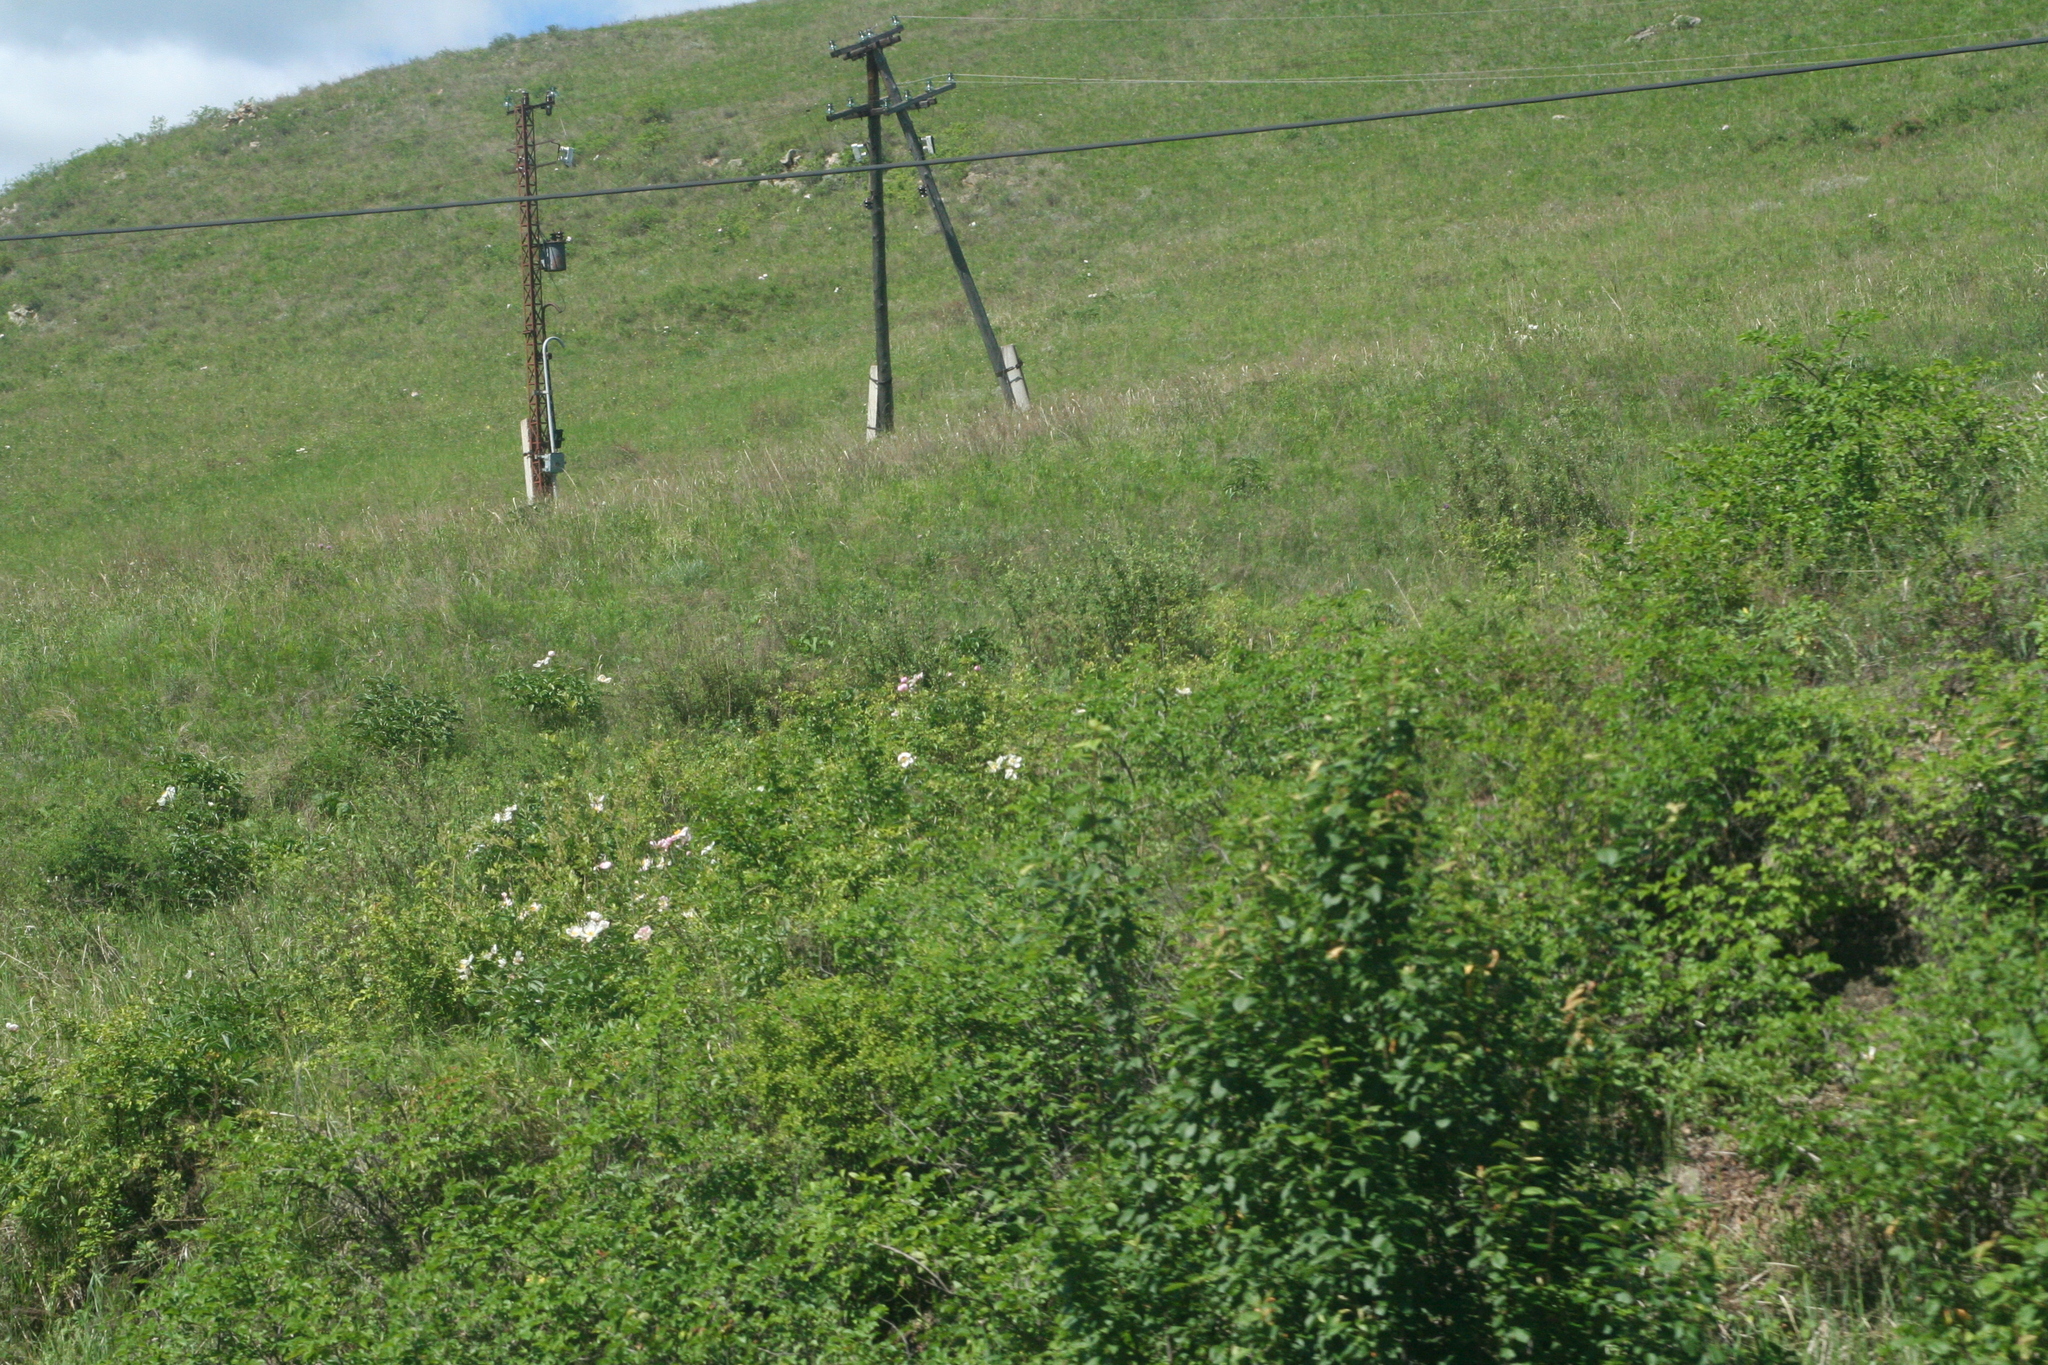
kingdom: Plantae
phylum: Tracheophyta
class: Magnoliopsida
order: Saxifragales
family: Paeoniaceae
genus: Paeonia
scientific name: Paeonia lactiflora
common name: Chinese peony
